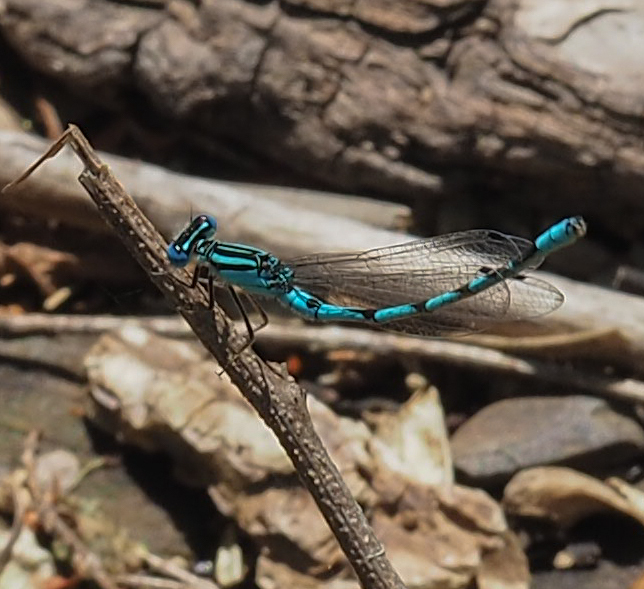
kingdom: Animalia
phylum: Arthropoda
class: Insecta
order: Odonata
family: Coenagrionidae
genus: Enallagma
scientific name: Enallagma durum
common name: Big bluet
